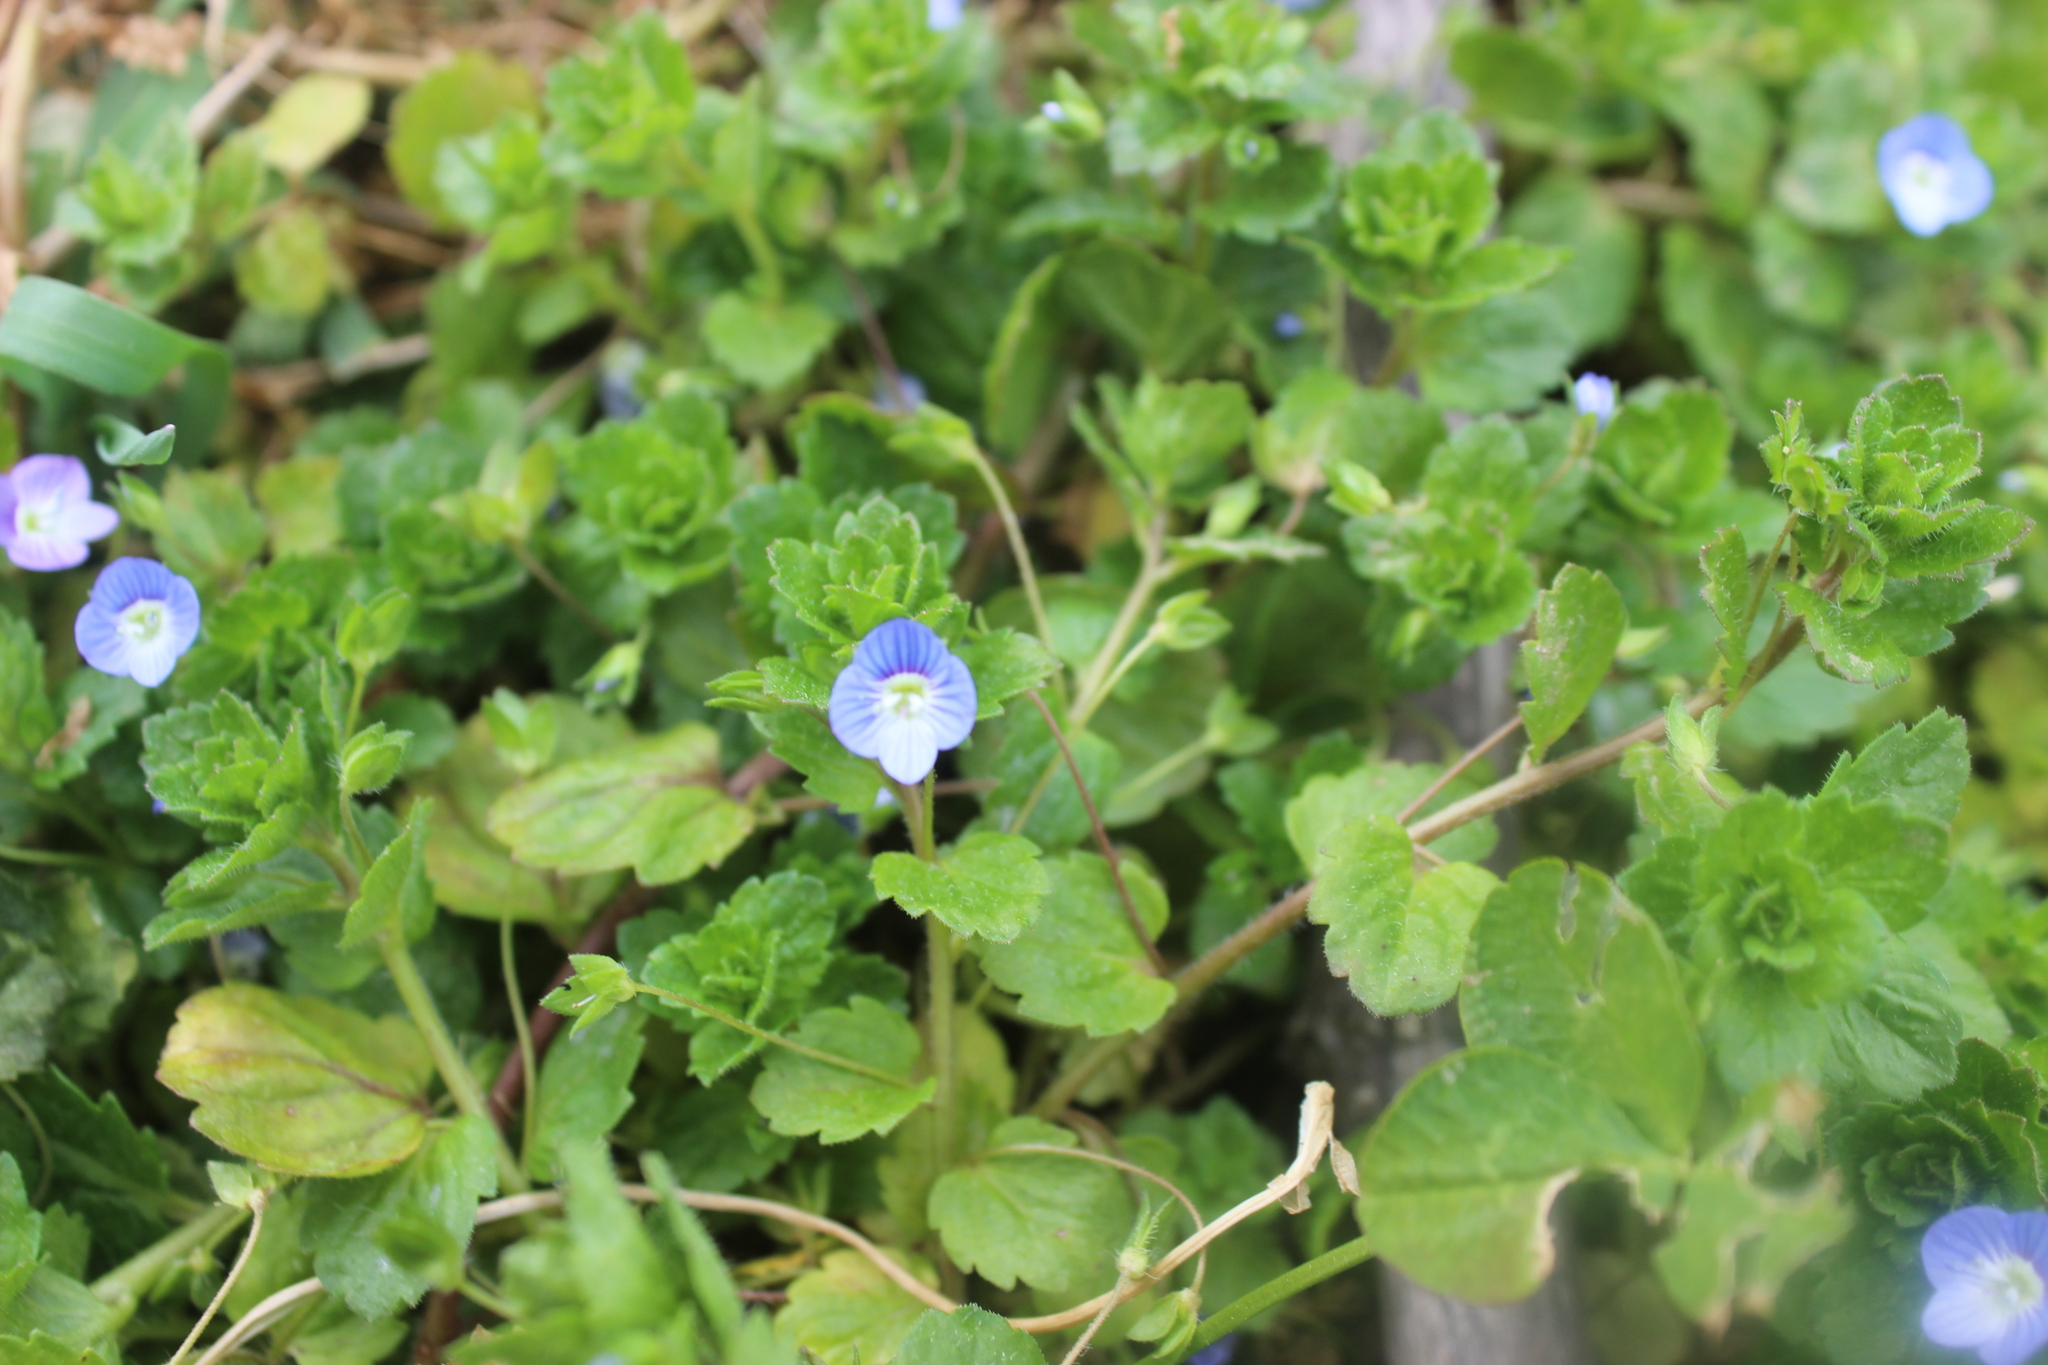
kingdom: Plantae
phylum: Tracheophyta
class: Magnoliopsida
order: Lamiales
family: Plantaginaceae
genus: Veronica
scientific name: Veronica persica
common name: Common field-speedwell
